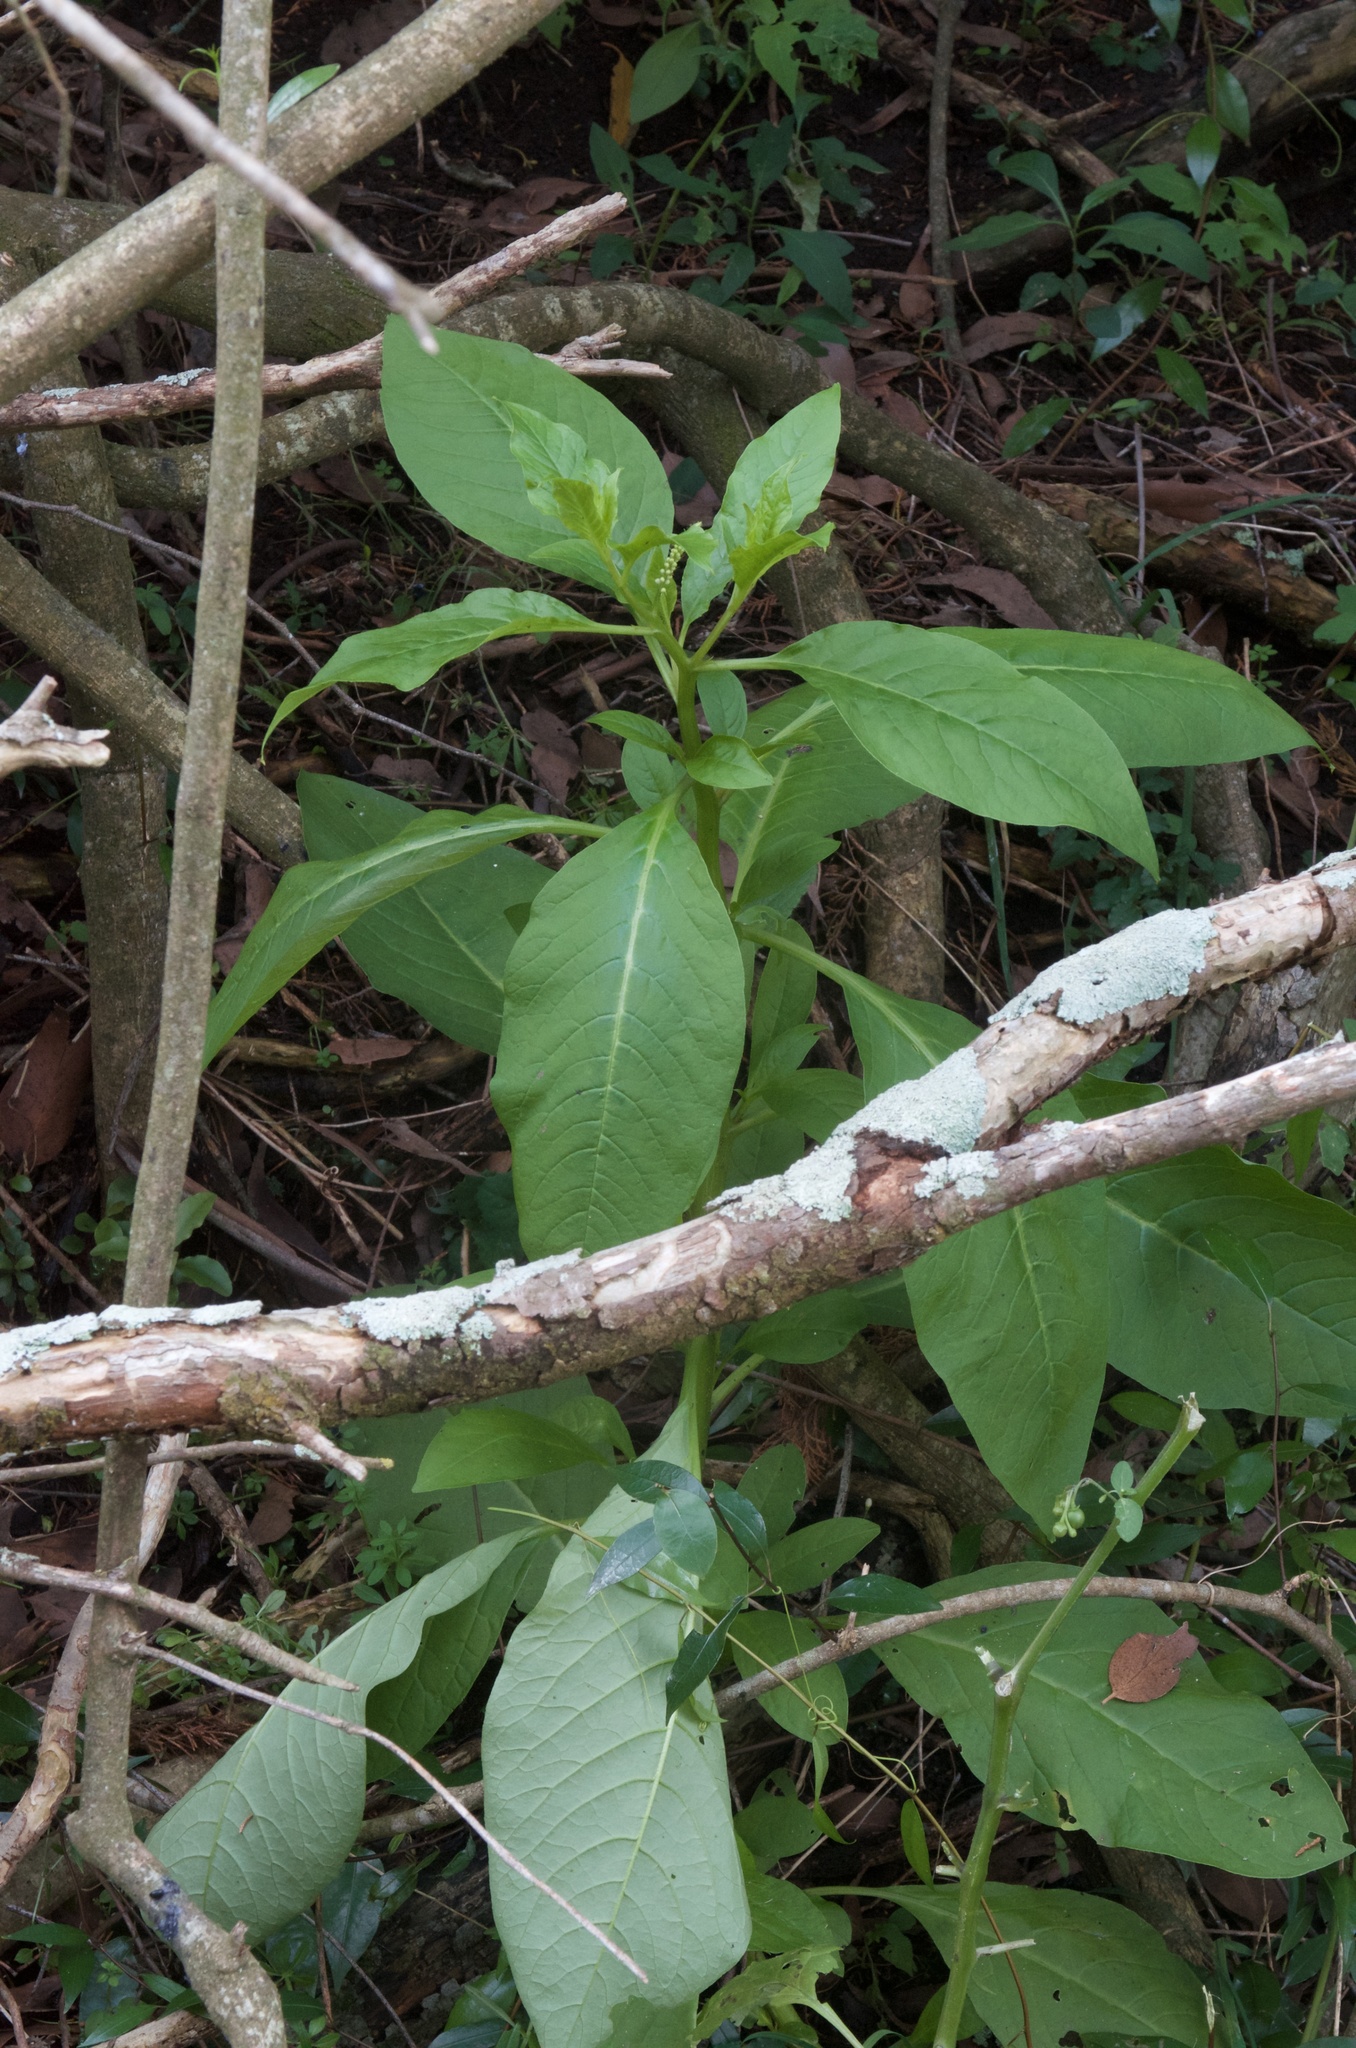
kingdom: Plantae
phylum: Tracheophyta
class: Magnoliopsida
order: Caryophyllales
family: Phytolaccaceae
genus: Phytolacca
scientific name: Phytolacca icosandra
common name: Button pokeweed
